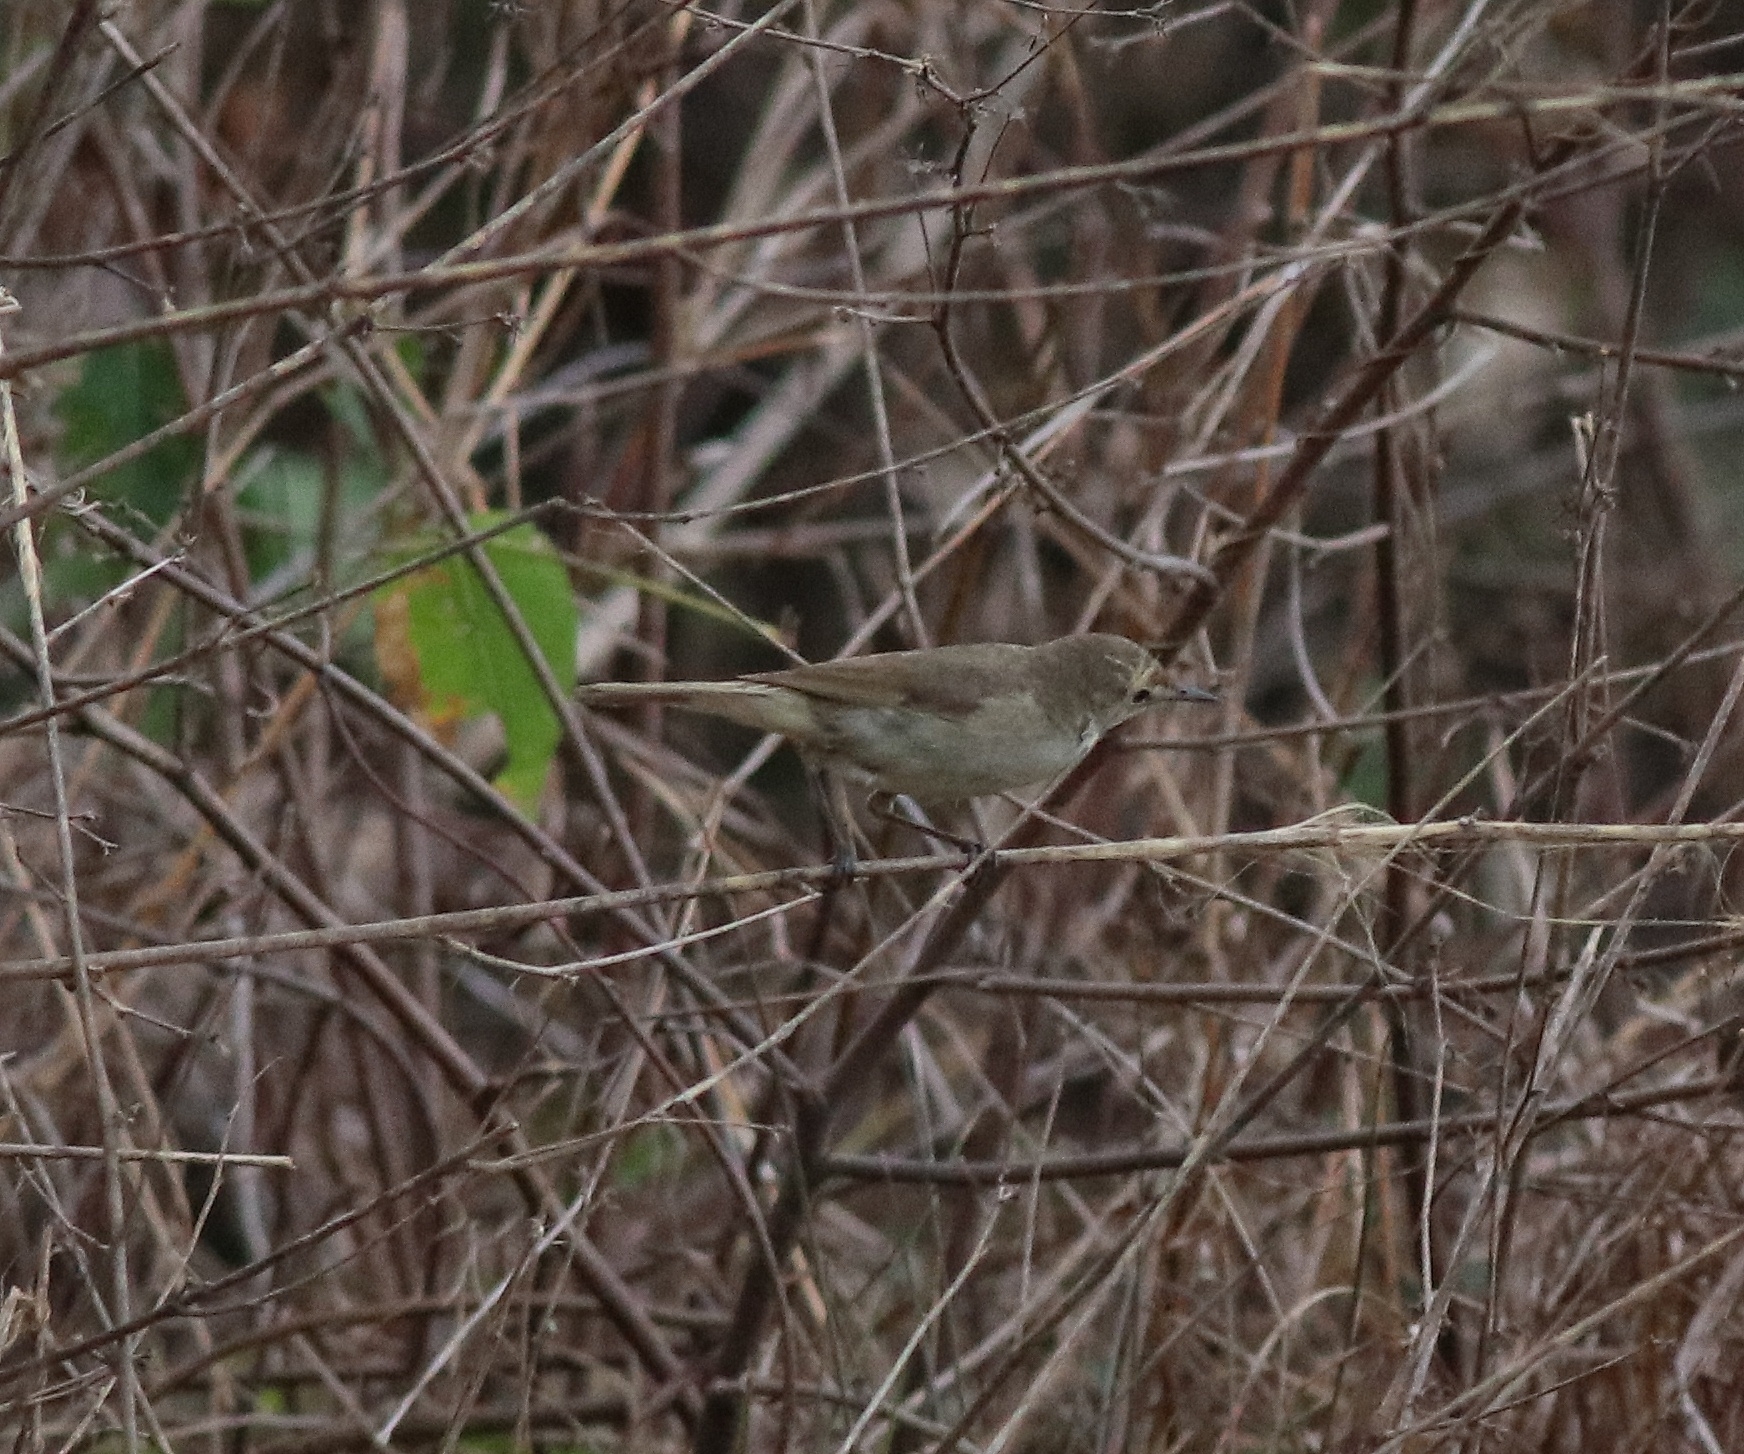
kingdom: Animalia
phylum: Chordata
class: Aves
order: Passeriformes
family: Acrocephalidae
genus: Acrocephalus
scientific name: Acrocephalus dumetorum
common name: Blyth's reed warbler
